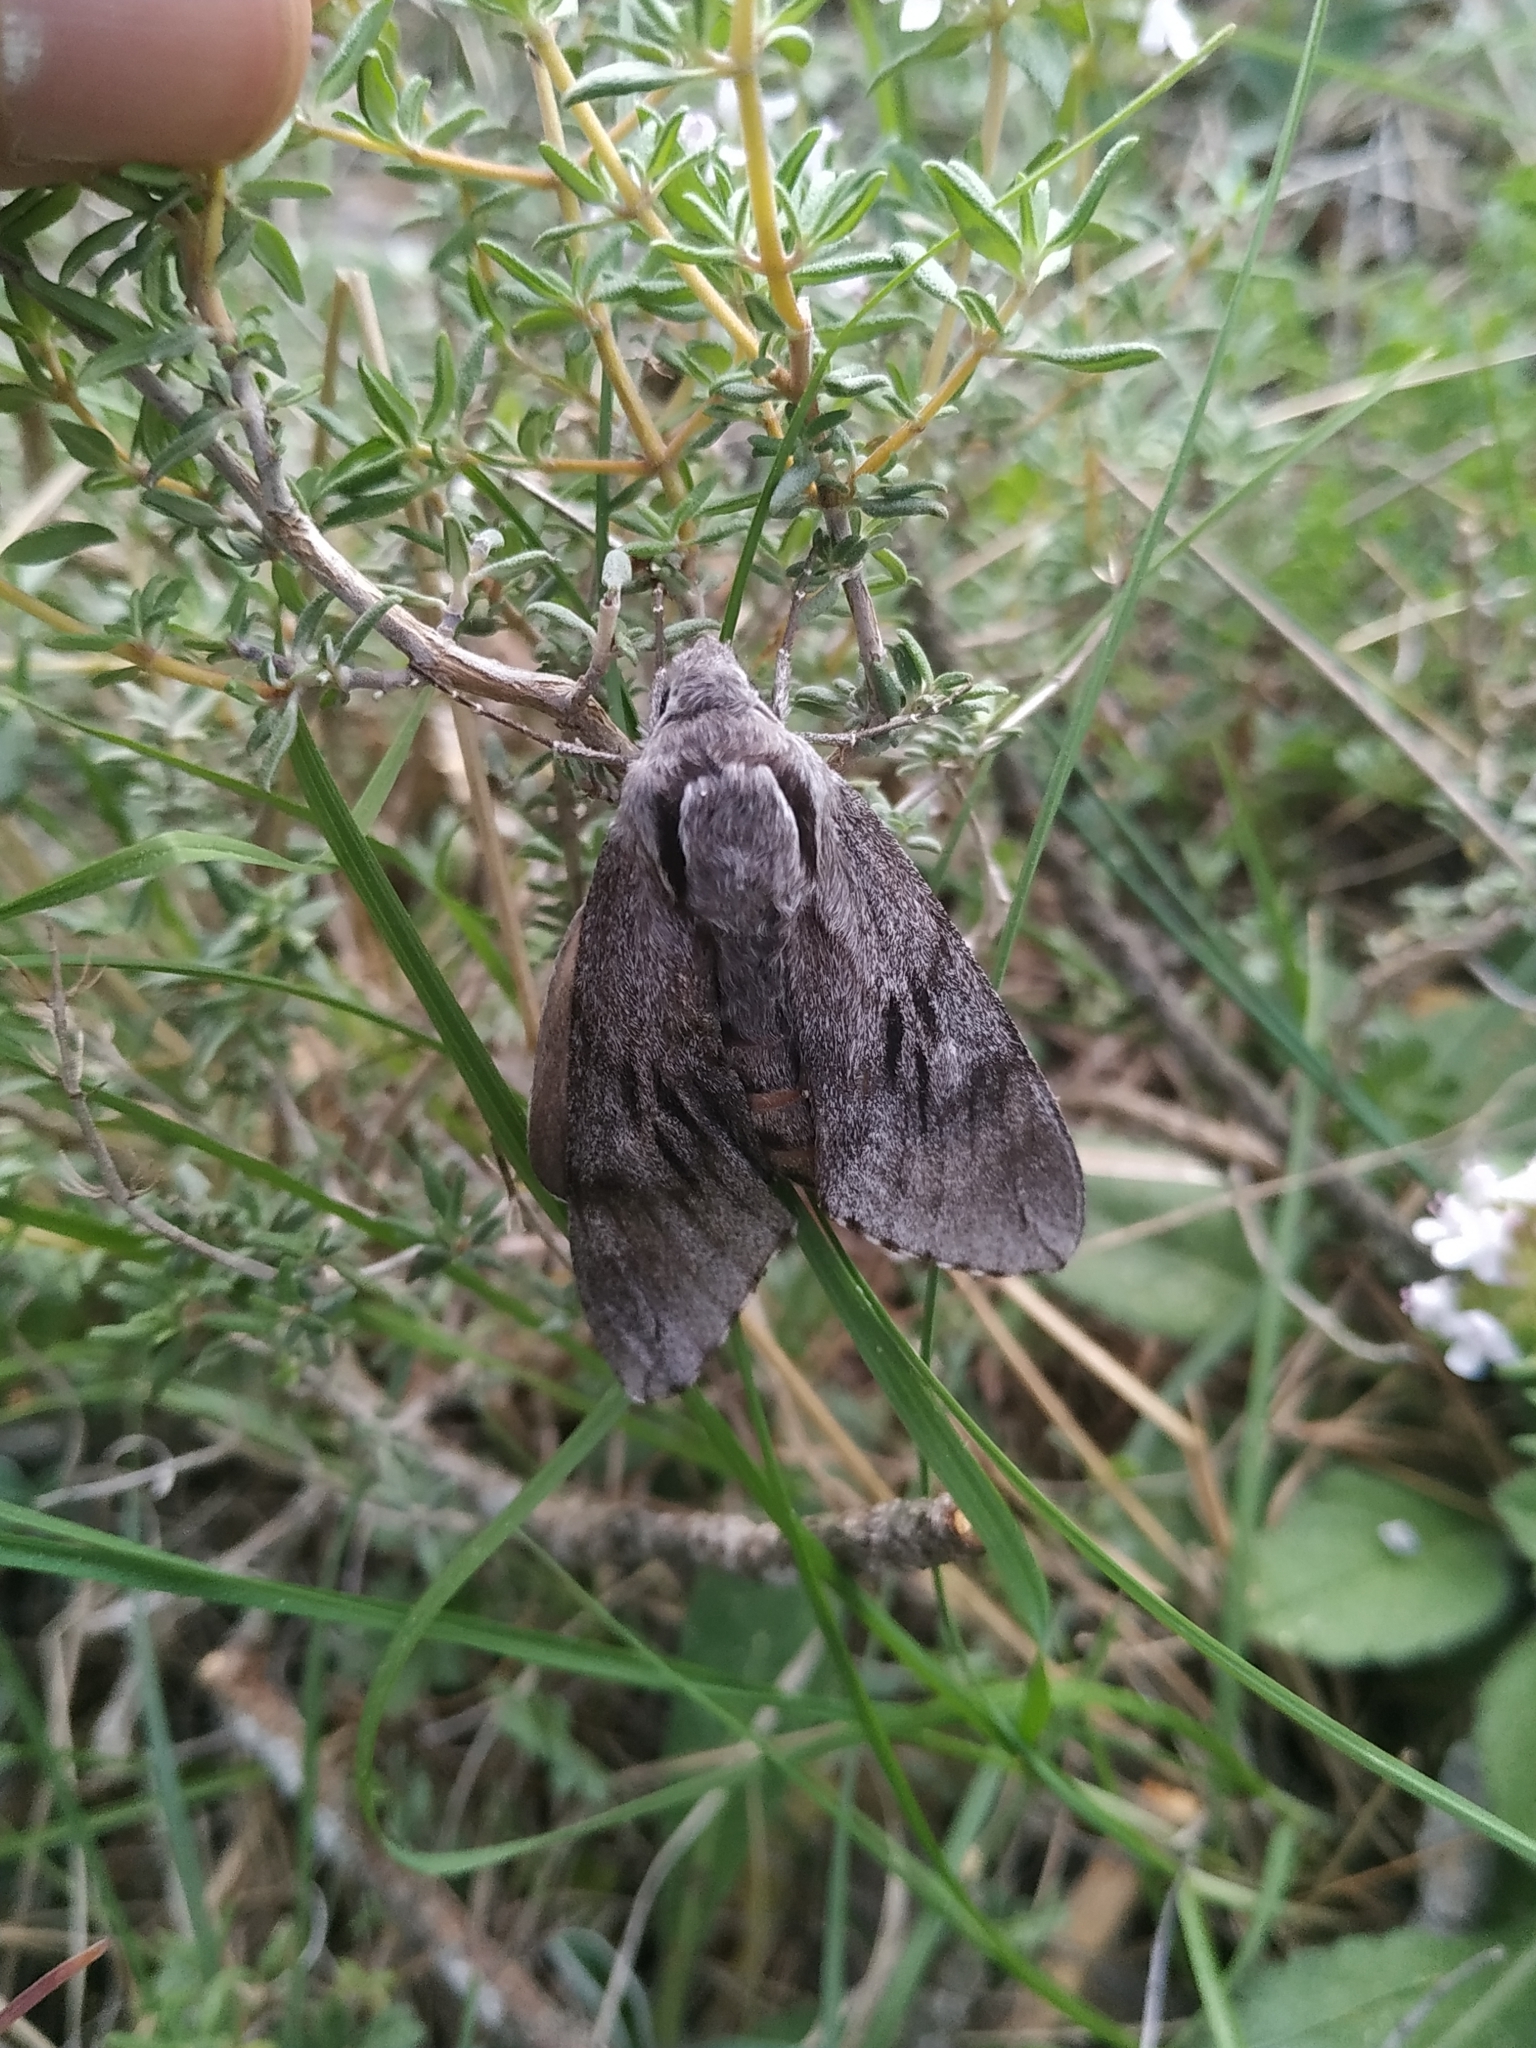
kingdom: Animalia
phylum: Arthropoda
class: Insecta
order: Lepidoptera
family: Sphingidae
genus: Sphinx
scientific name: Sphinx maurorum
